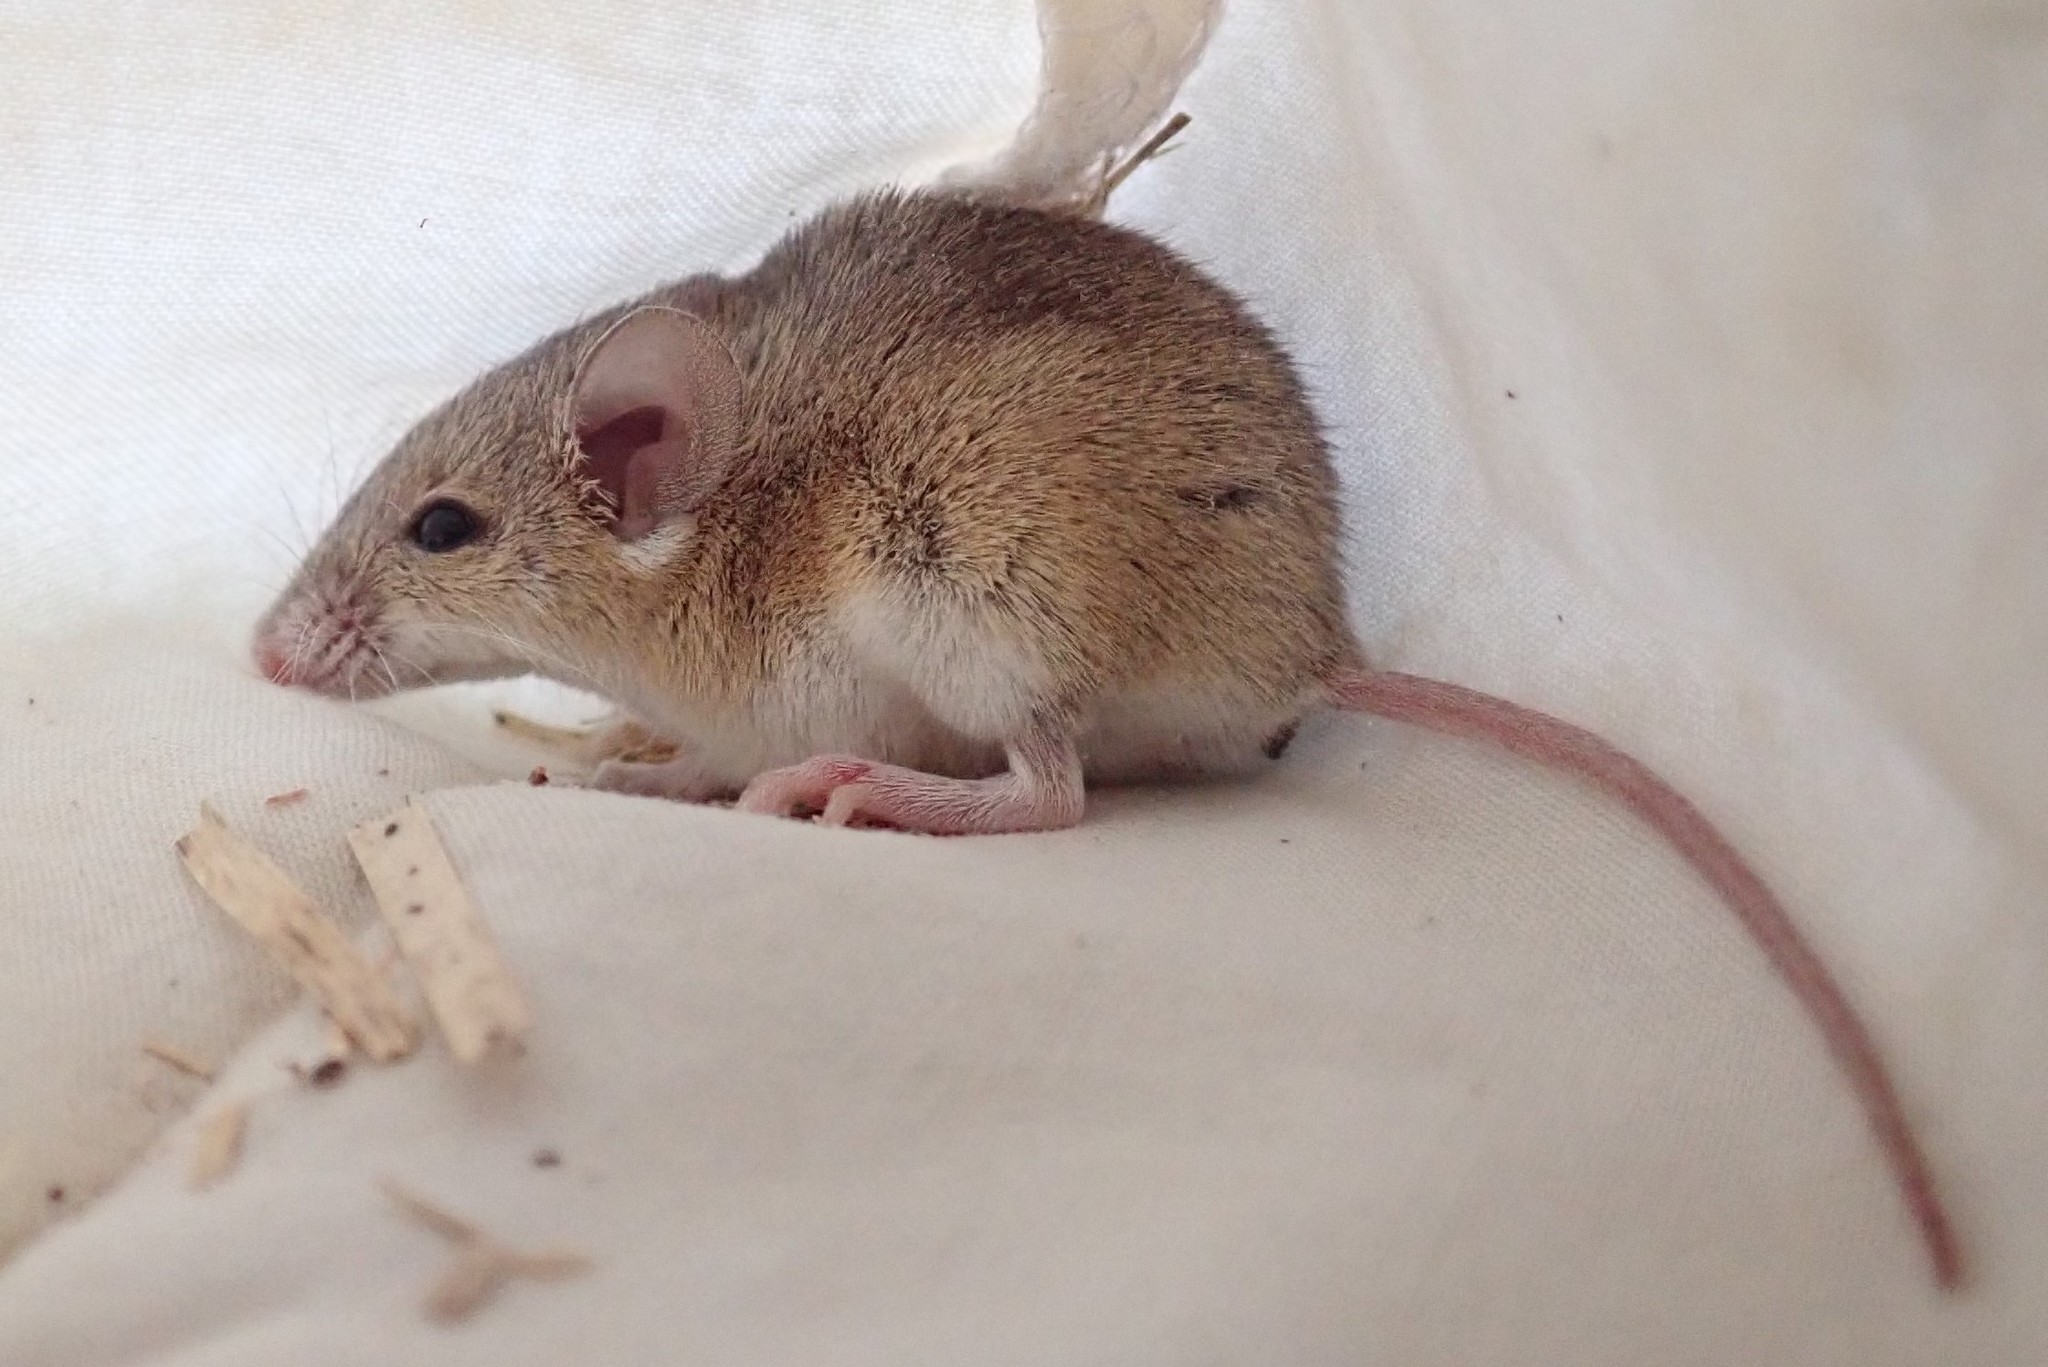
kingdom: Animalia
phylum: Chordata
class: Mammalia
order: Rodentia
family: Muridae
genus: Mus
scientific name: Mus minutoides
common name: Southern african pygmy mouse
